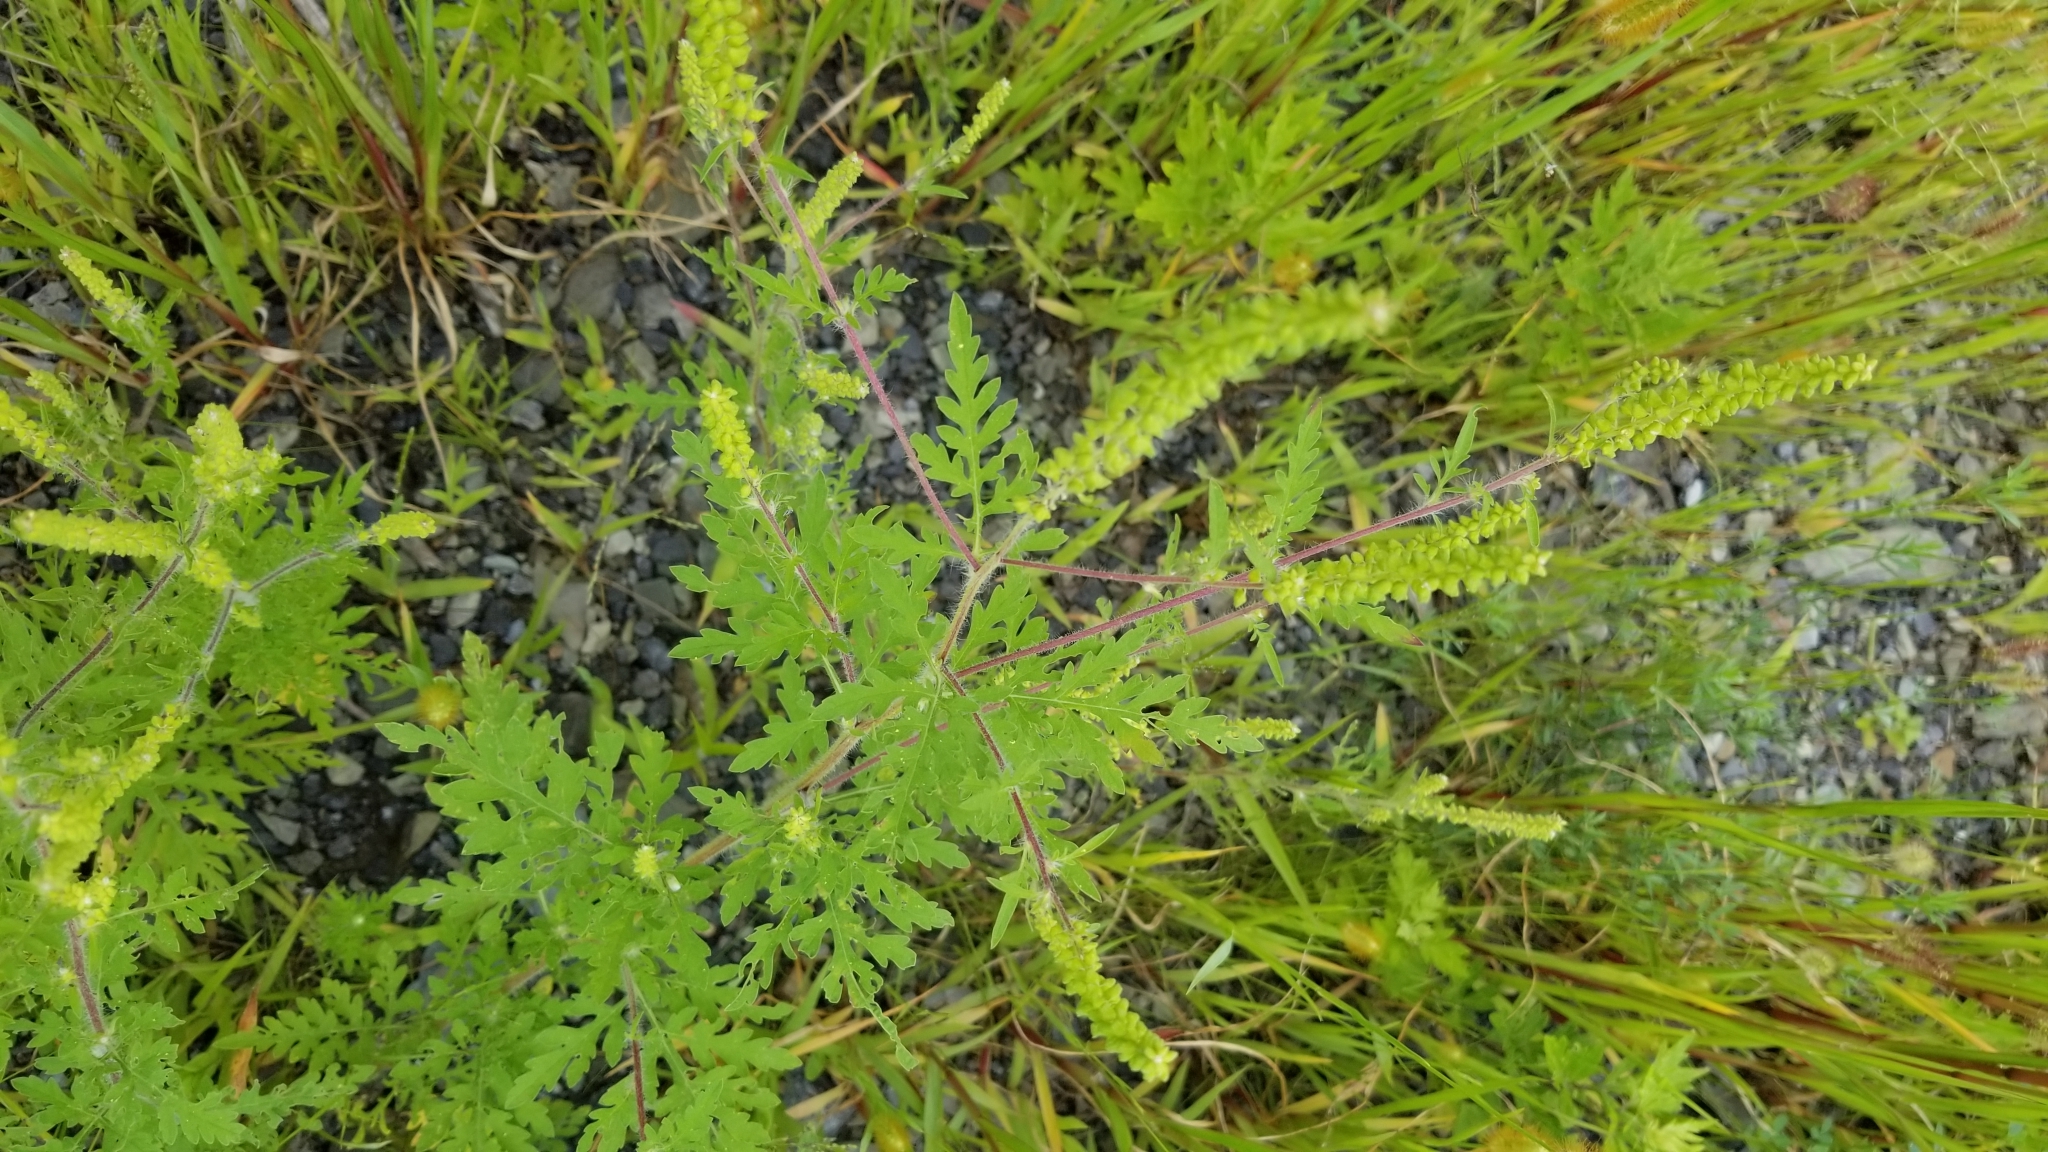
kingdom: Plantae
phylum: Tracheophyta
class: Magnoliopsida
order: Asterales
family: Asteraceae
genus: Ambrosia
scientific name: Ambrosia artemisiifolia
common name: Annual ragweed
